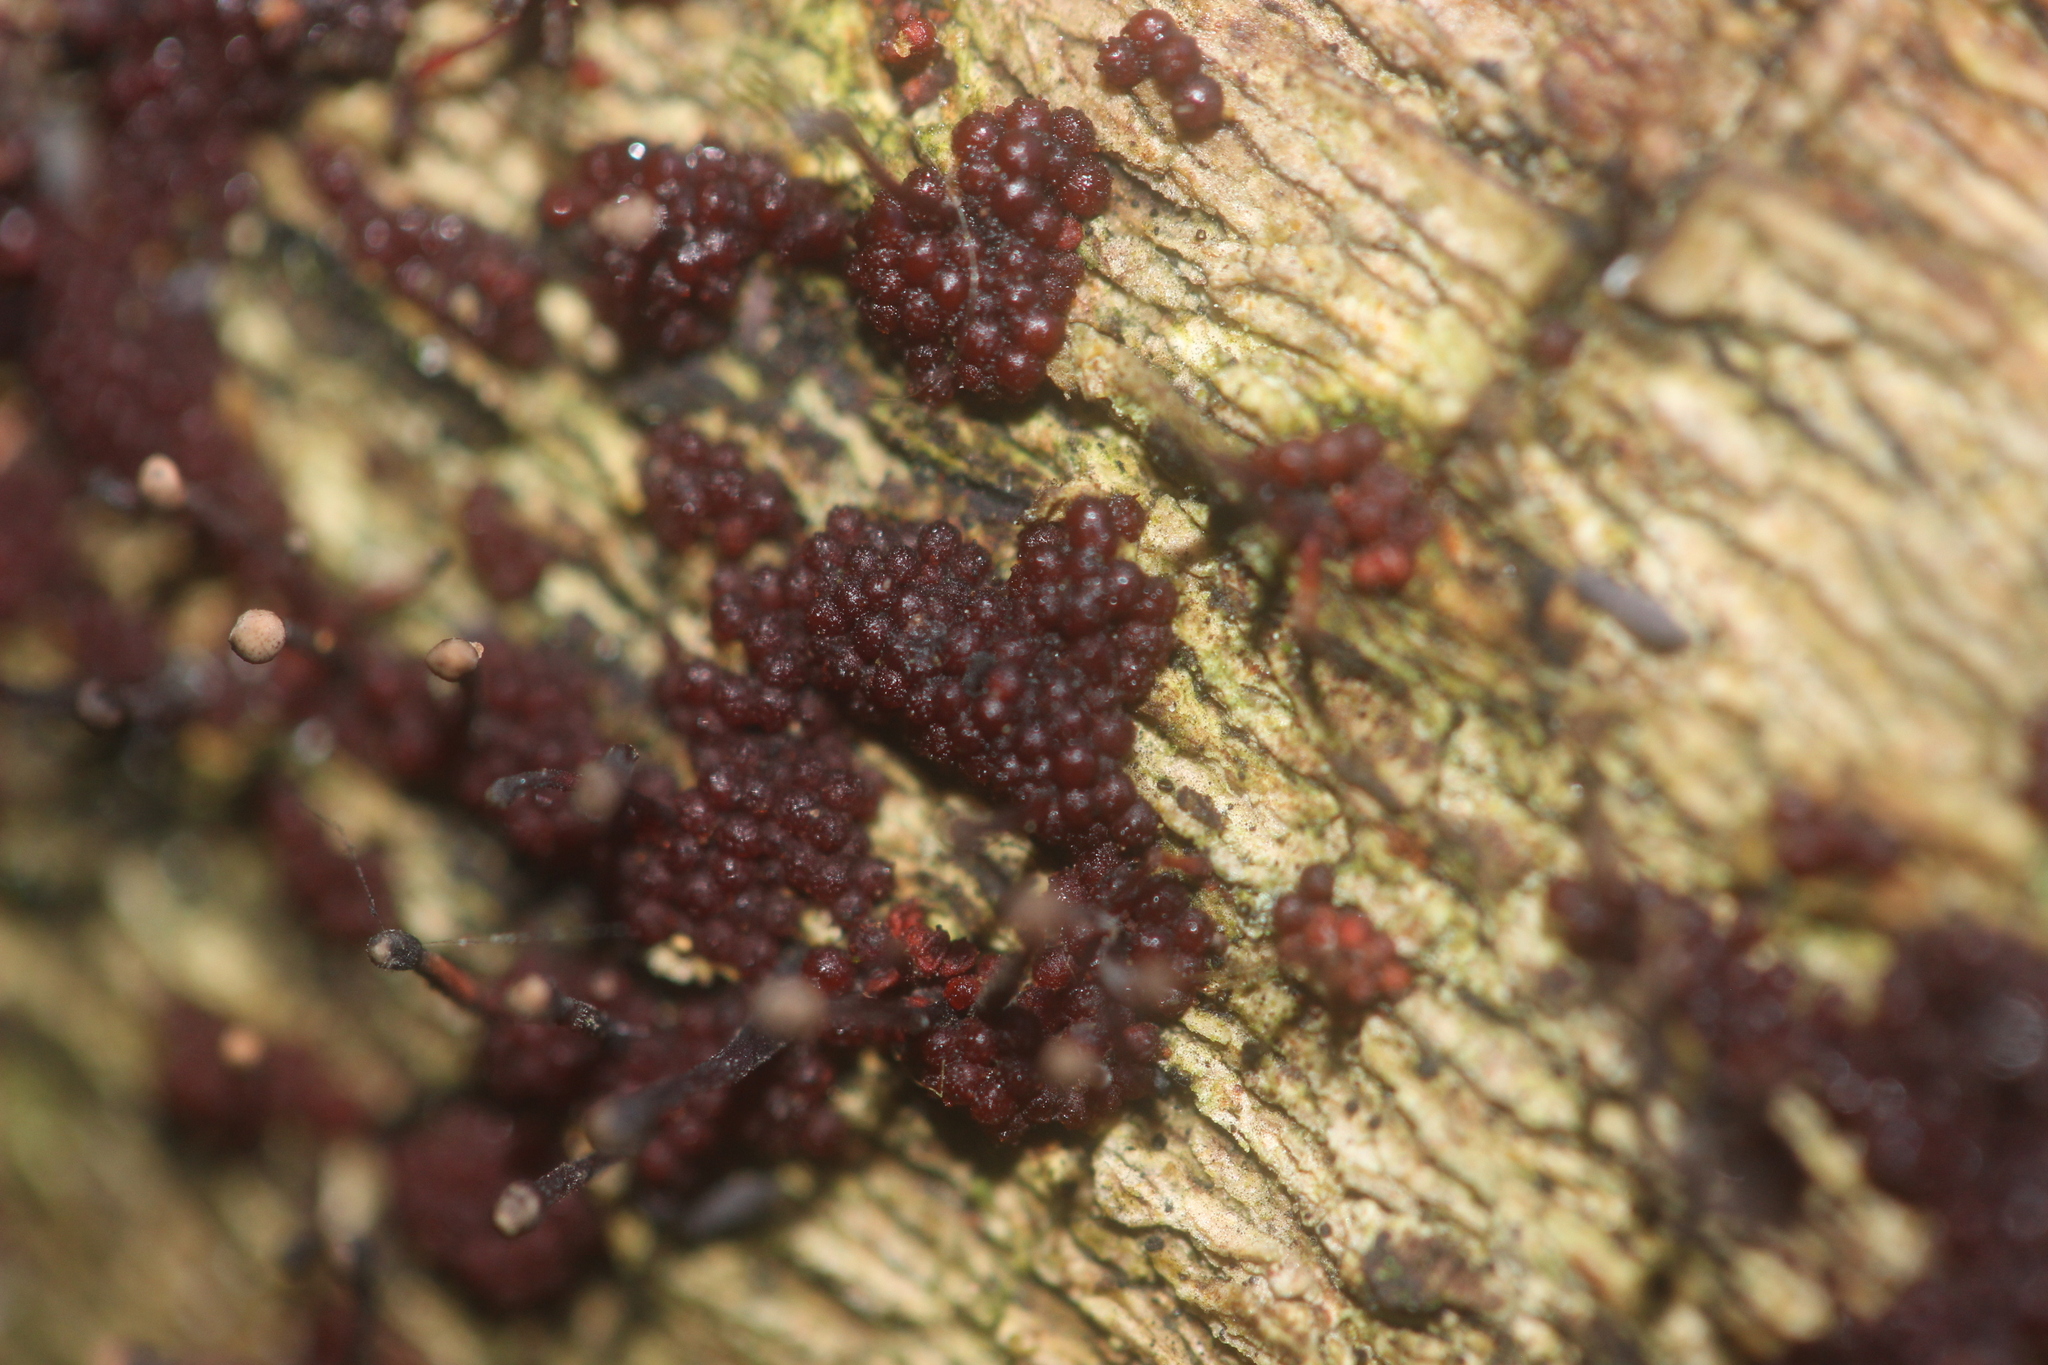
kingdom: Fungi
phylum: Ascomycota
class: Sordariomycetes
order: Hypocreales
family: Nectriaceae
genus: Murinectria
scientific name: Murinectria polythalama
